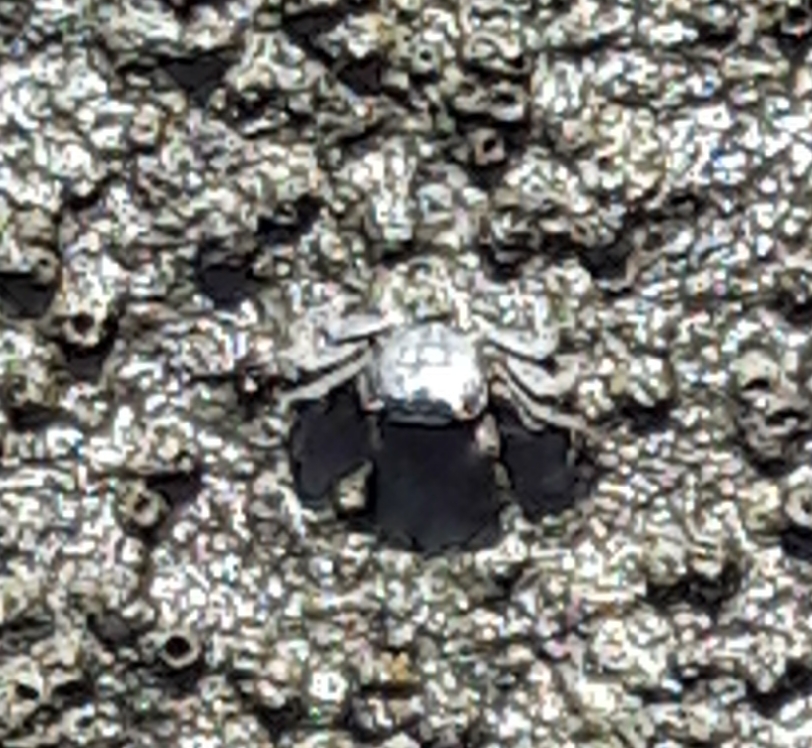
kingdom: Animalia
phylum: Arthropoda
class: Malacostraca
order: Decapoda
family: Grapsidae
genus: Pachygrapsus
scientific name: Pachygrapsus marmoratus
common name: Marbled rock crab
